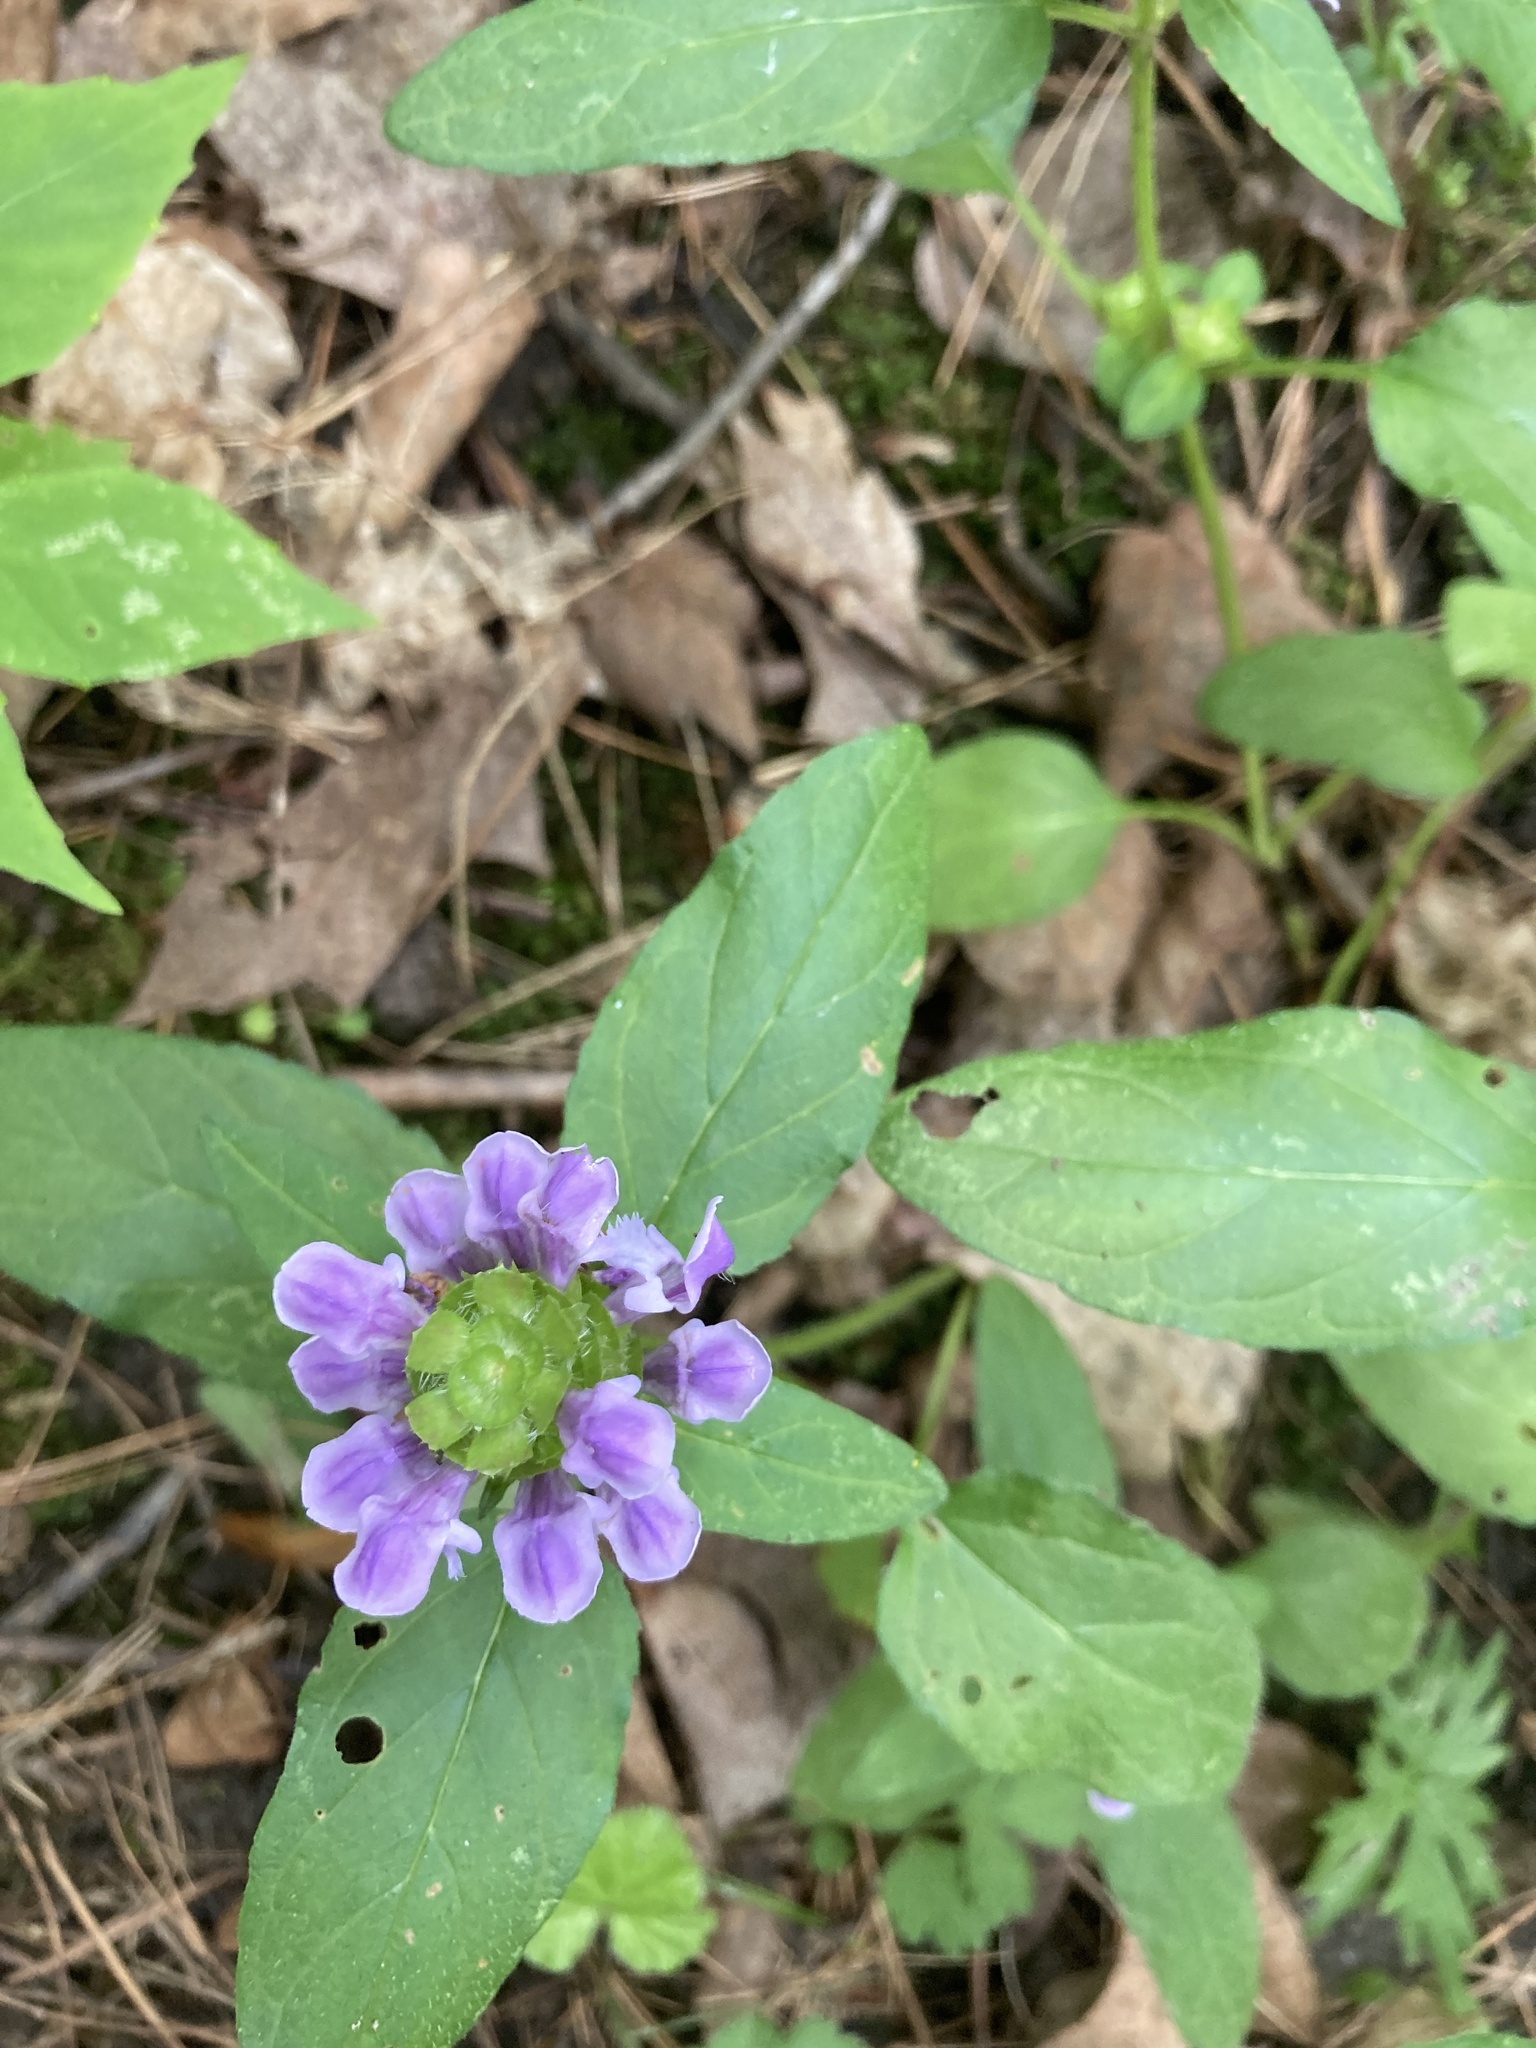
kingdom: Plantae
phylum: Tracheophyta
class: Magnoliopsida
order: Lamiales
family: Lamiaceae
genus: Prunella
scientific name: Prunella vulgaris
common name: Heal-all
